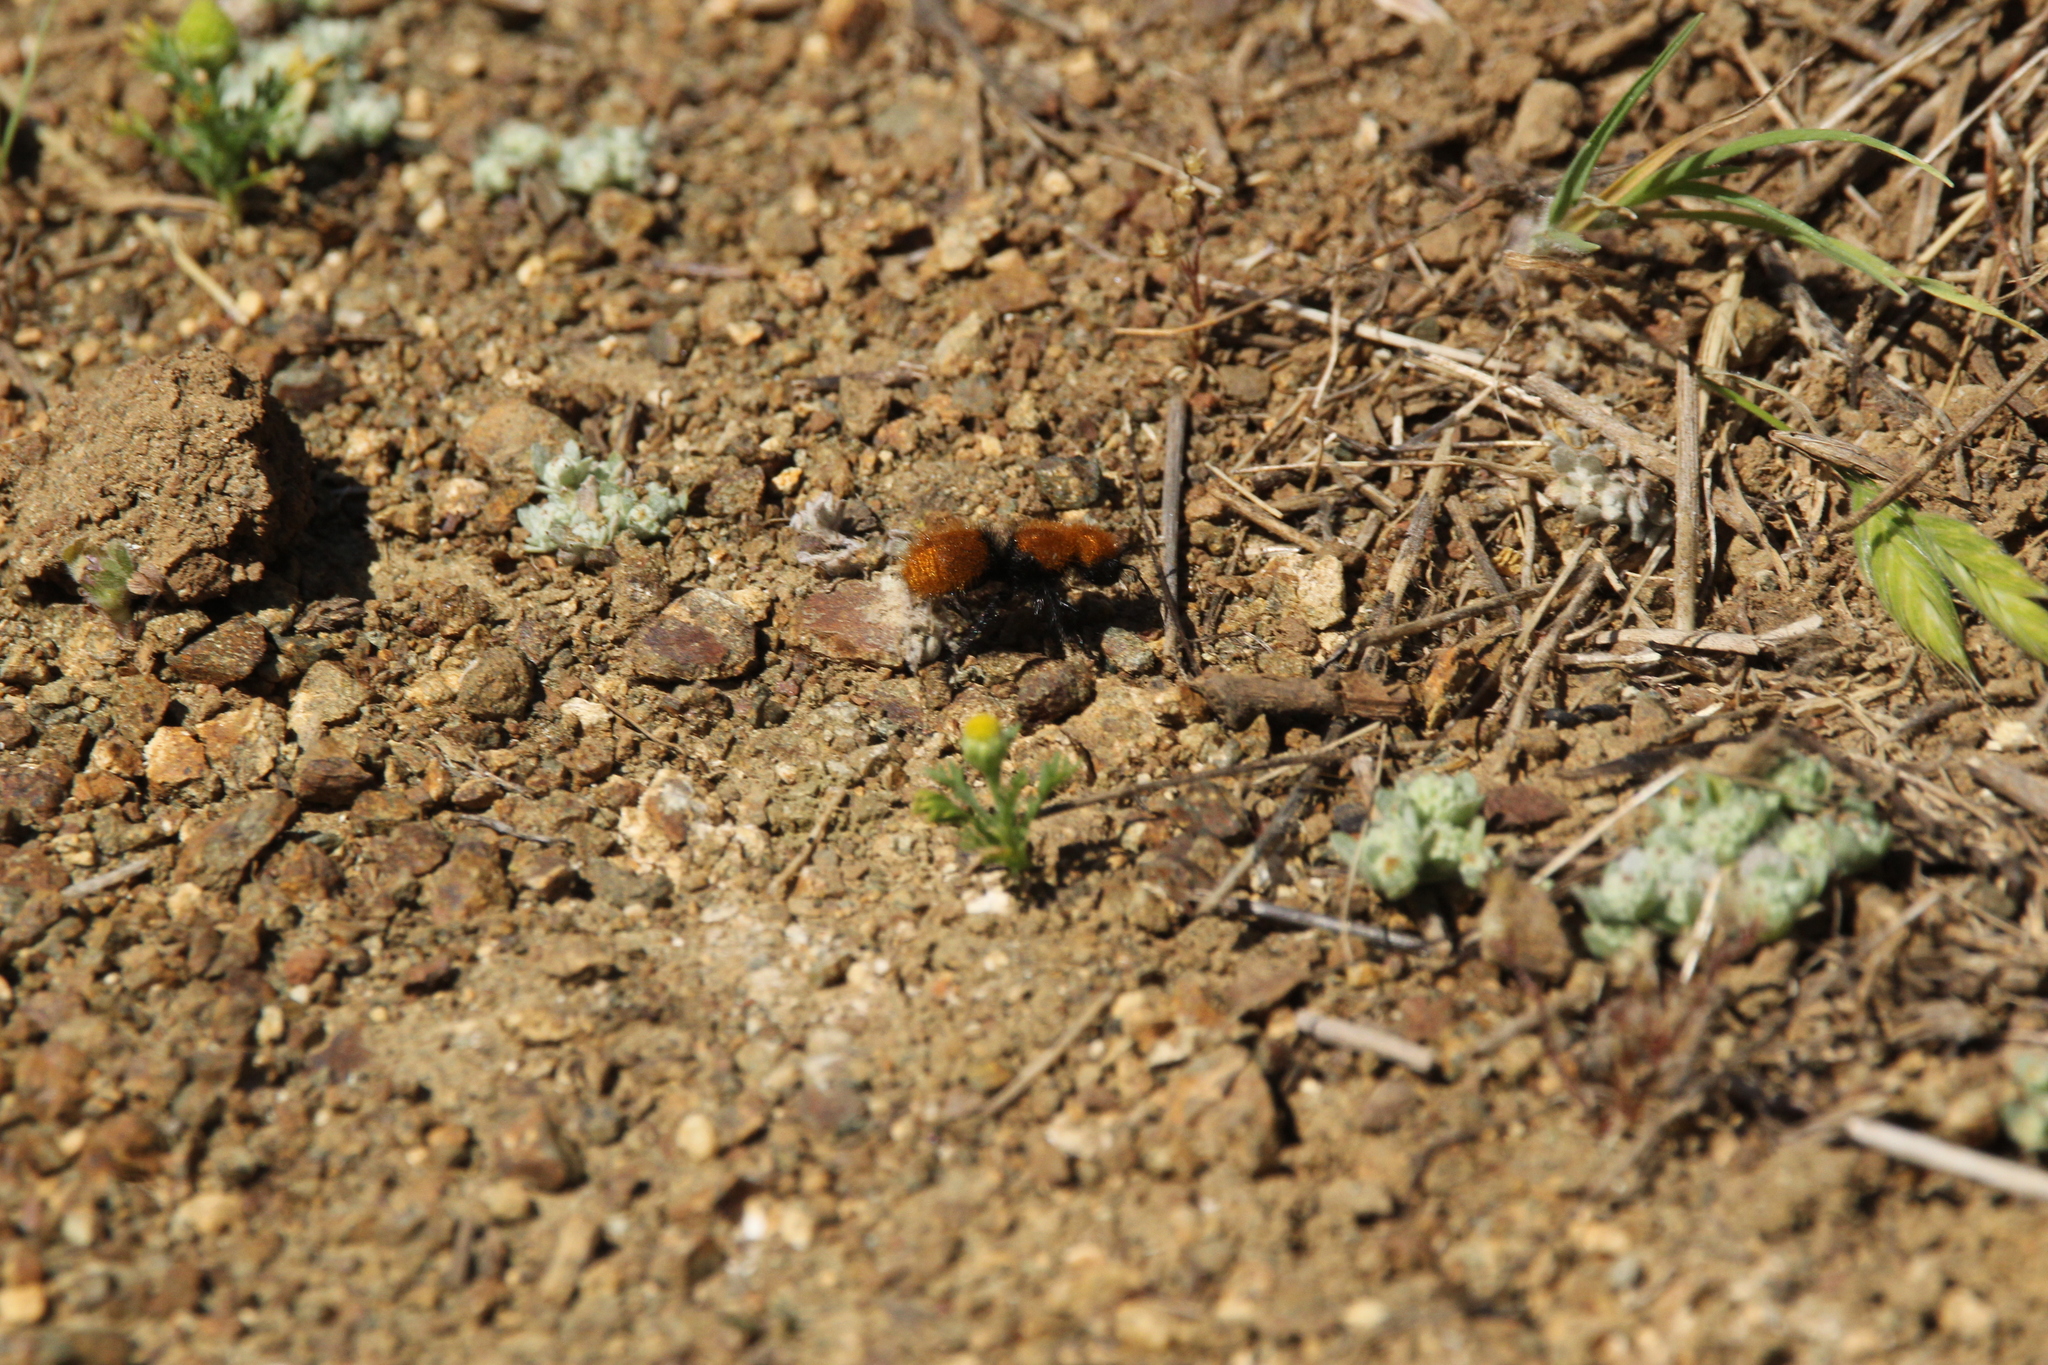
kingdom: Animalia
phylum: Arthropoda
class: Insecta
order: Hymenoptera
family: Mutillidae
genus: Dasymutilla
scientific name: Dasymutilla
